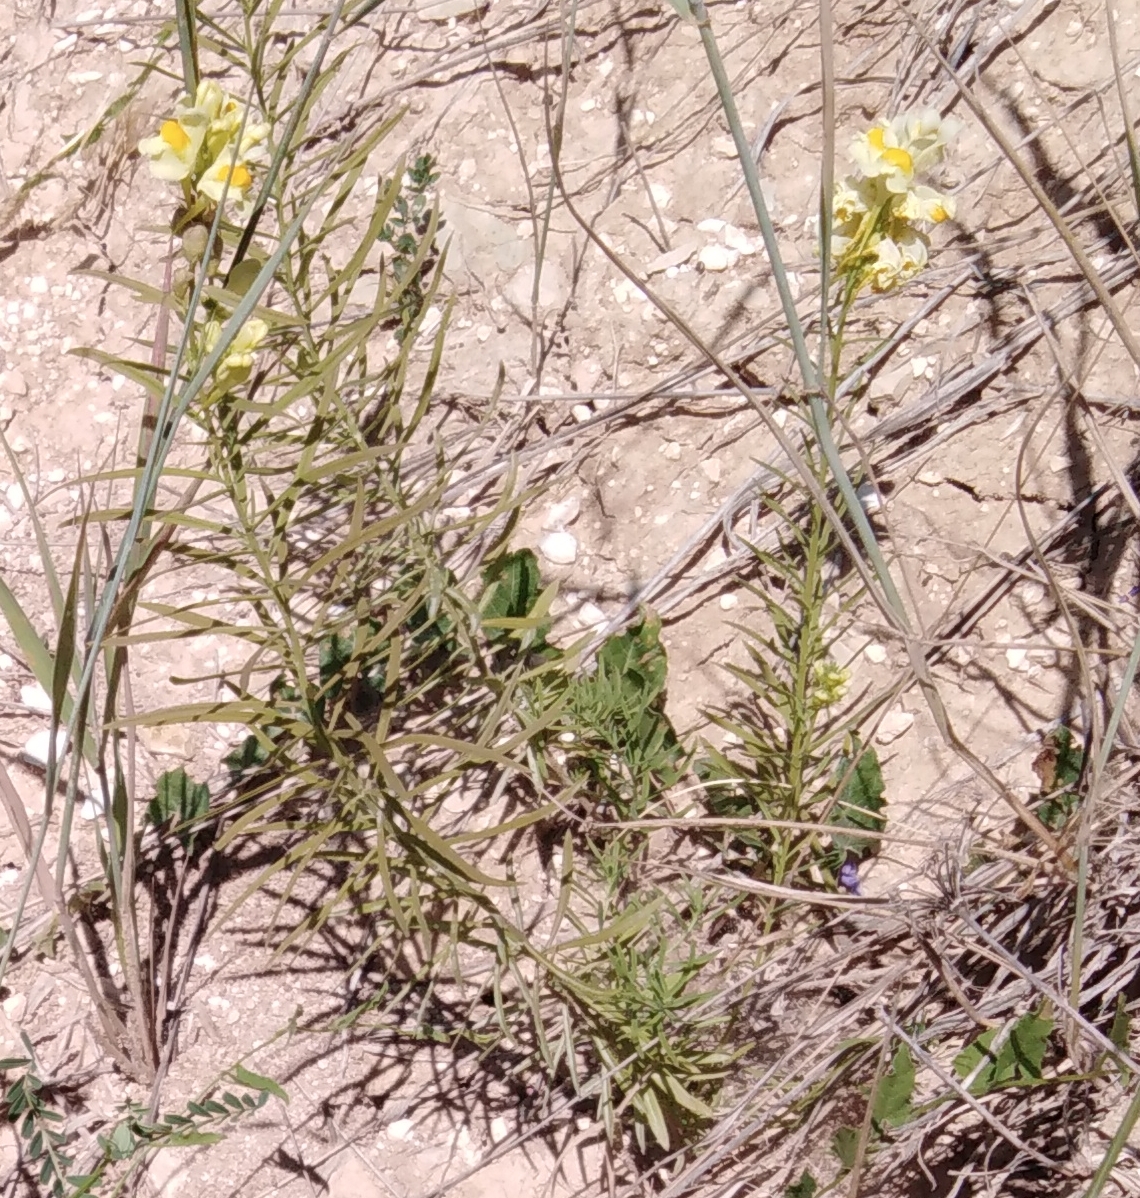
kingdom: Plantae
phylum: Tracheophyta
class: Magnoliopsida
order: Lamiales
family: Plantaginaceae
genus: Linaria
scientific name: Linaria vulgaris
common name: Butter and eggs
